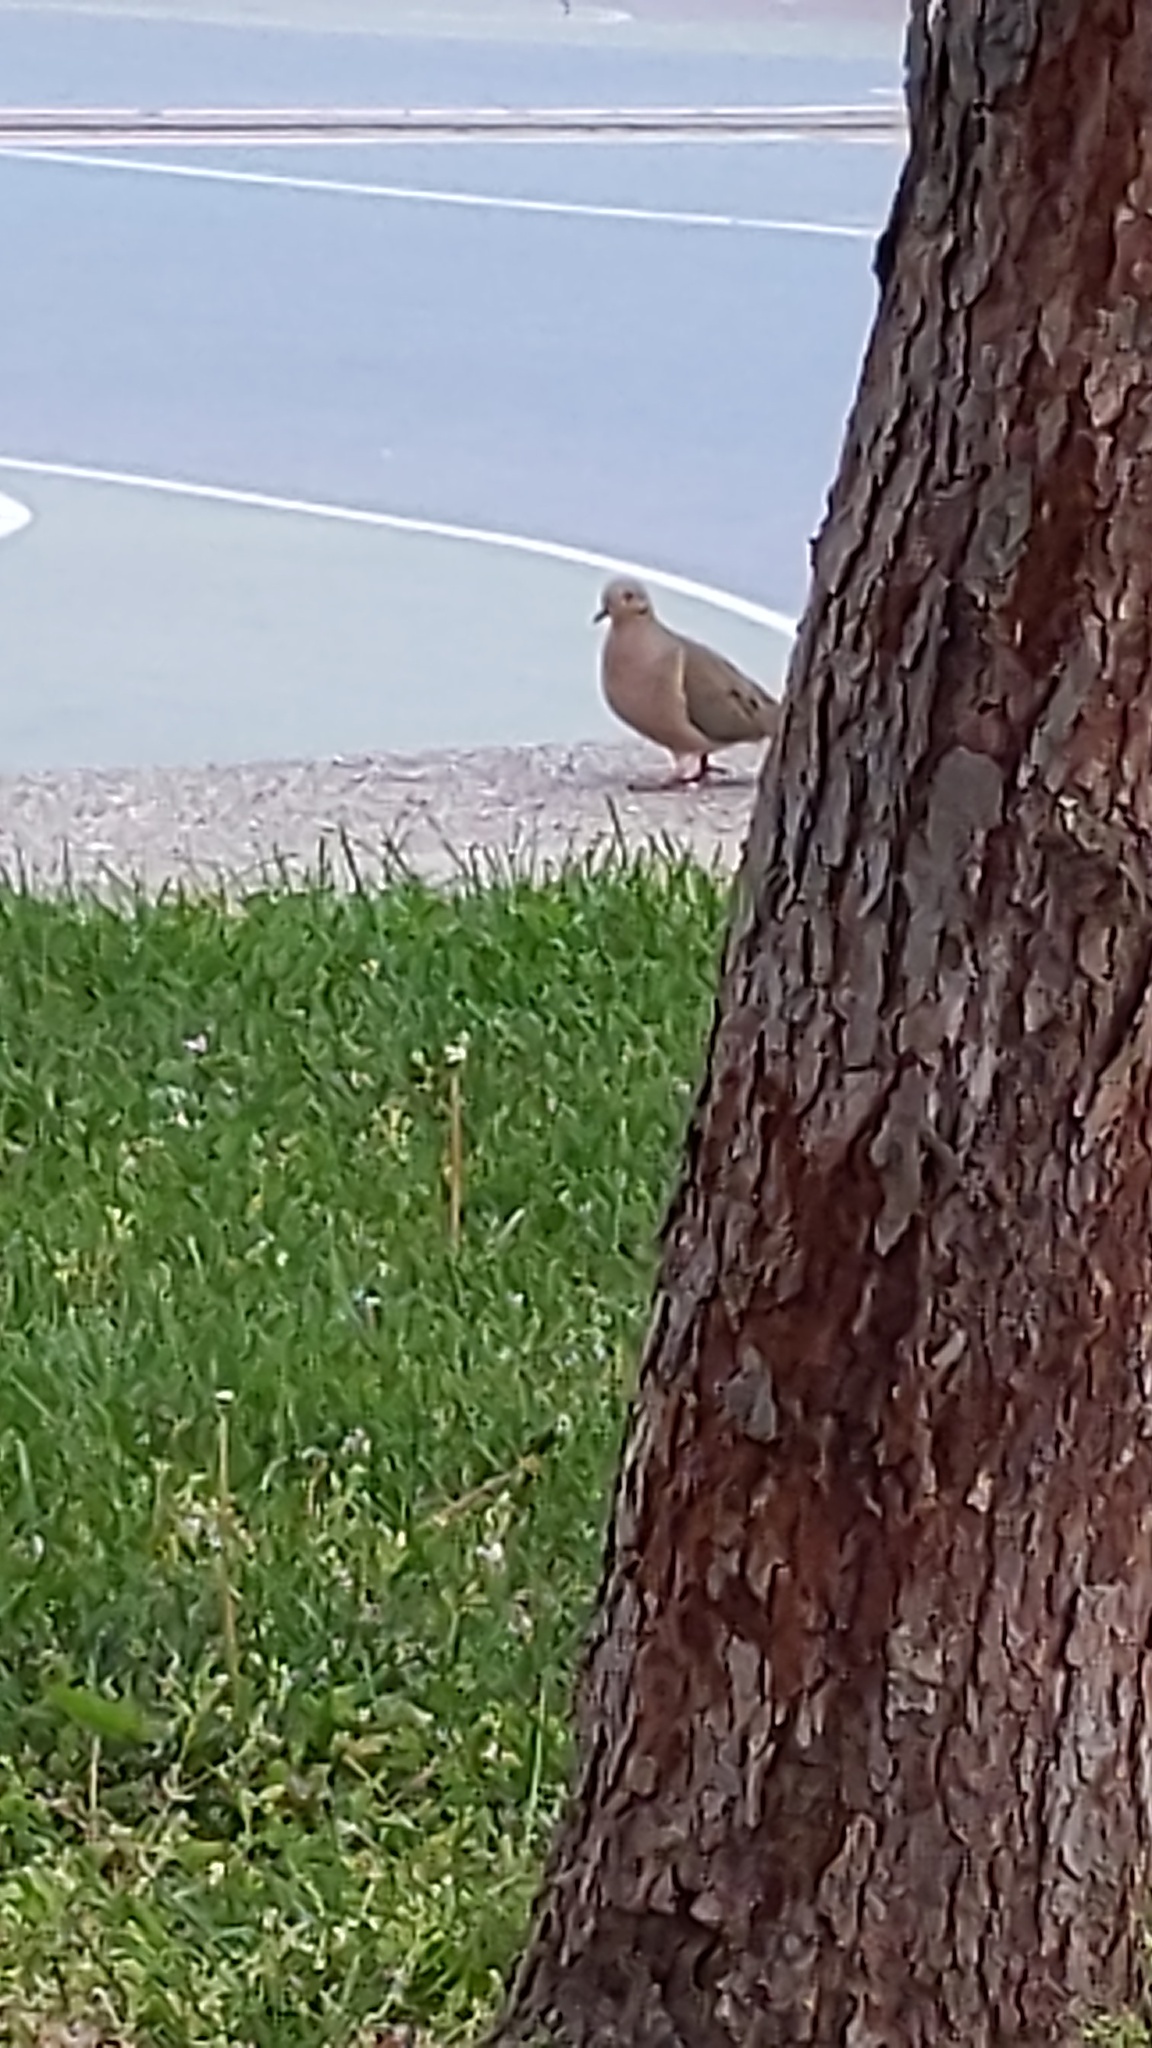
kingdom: Animalia
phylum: Chordata
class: Aves
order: Columbiformes
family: Columbidae
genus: Zenaida
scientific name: Zenaida macroura
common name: Mourning dove
